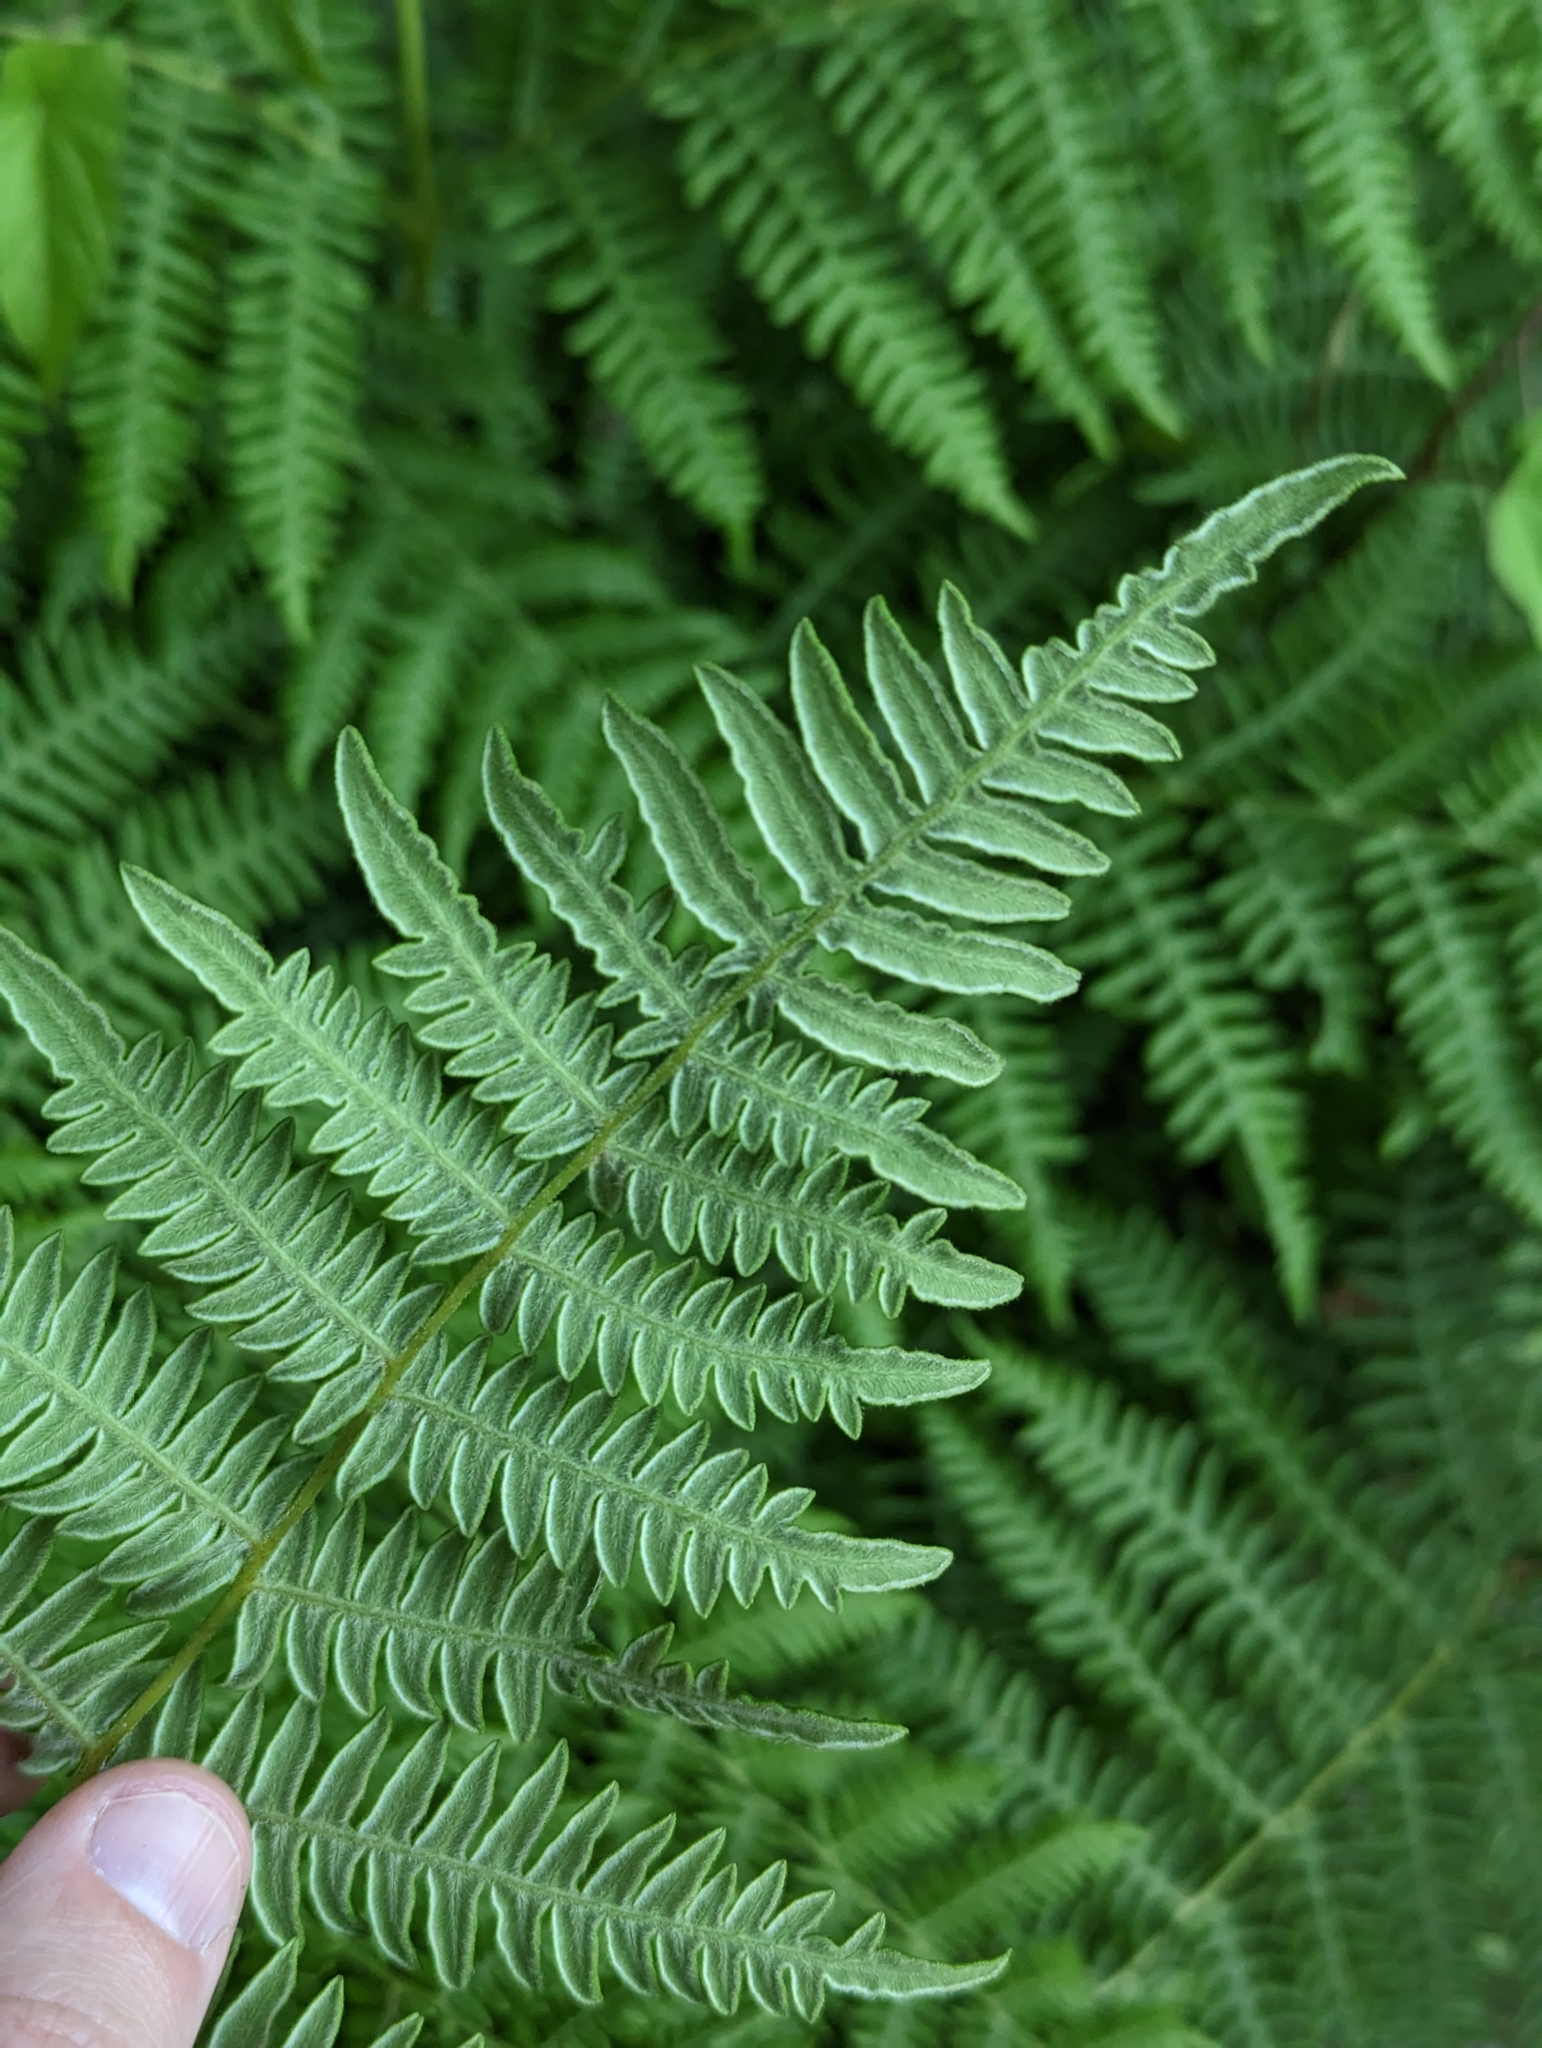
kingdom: Plantae
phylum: Tracheophyta
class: Polypodiopsida
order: Polypodiales
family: Dennstaedtiaceae
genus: Pteridium
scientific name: Pteridium aquilinum
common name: Bracken
